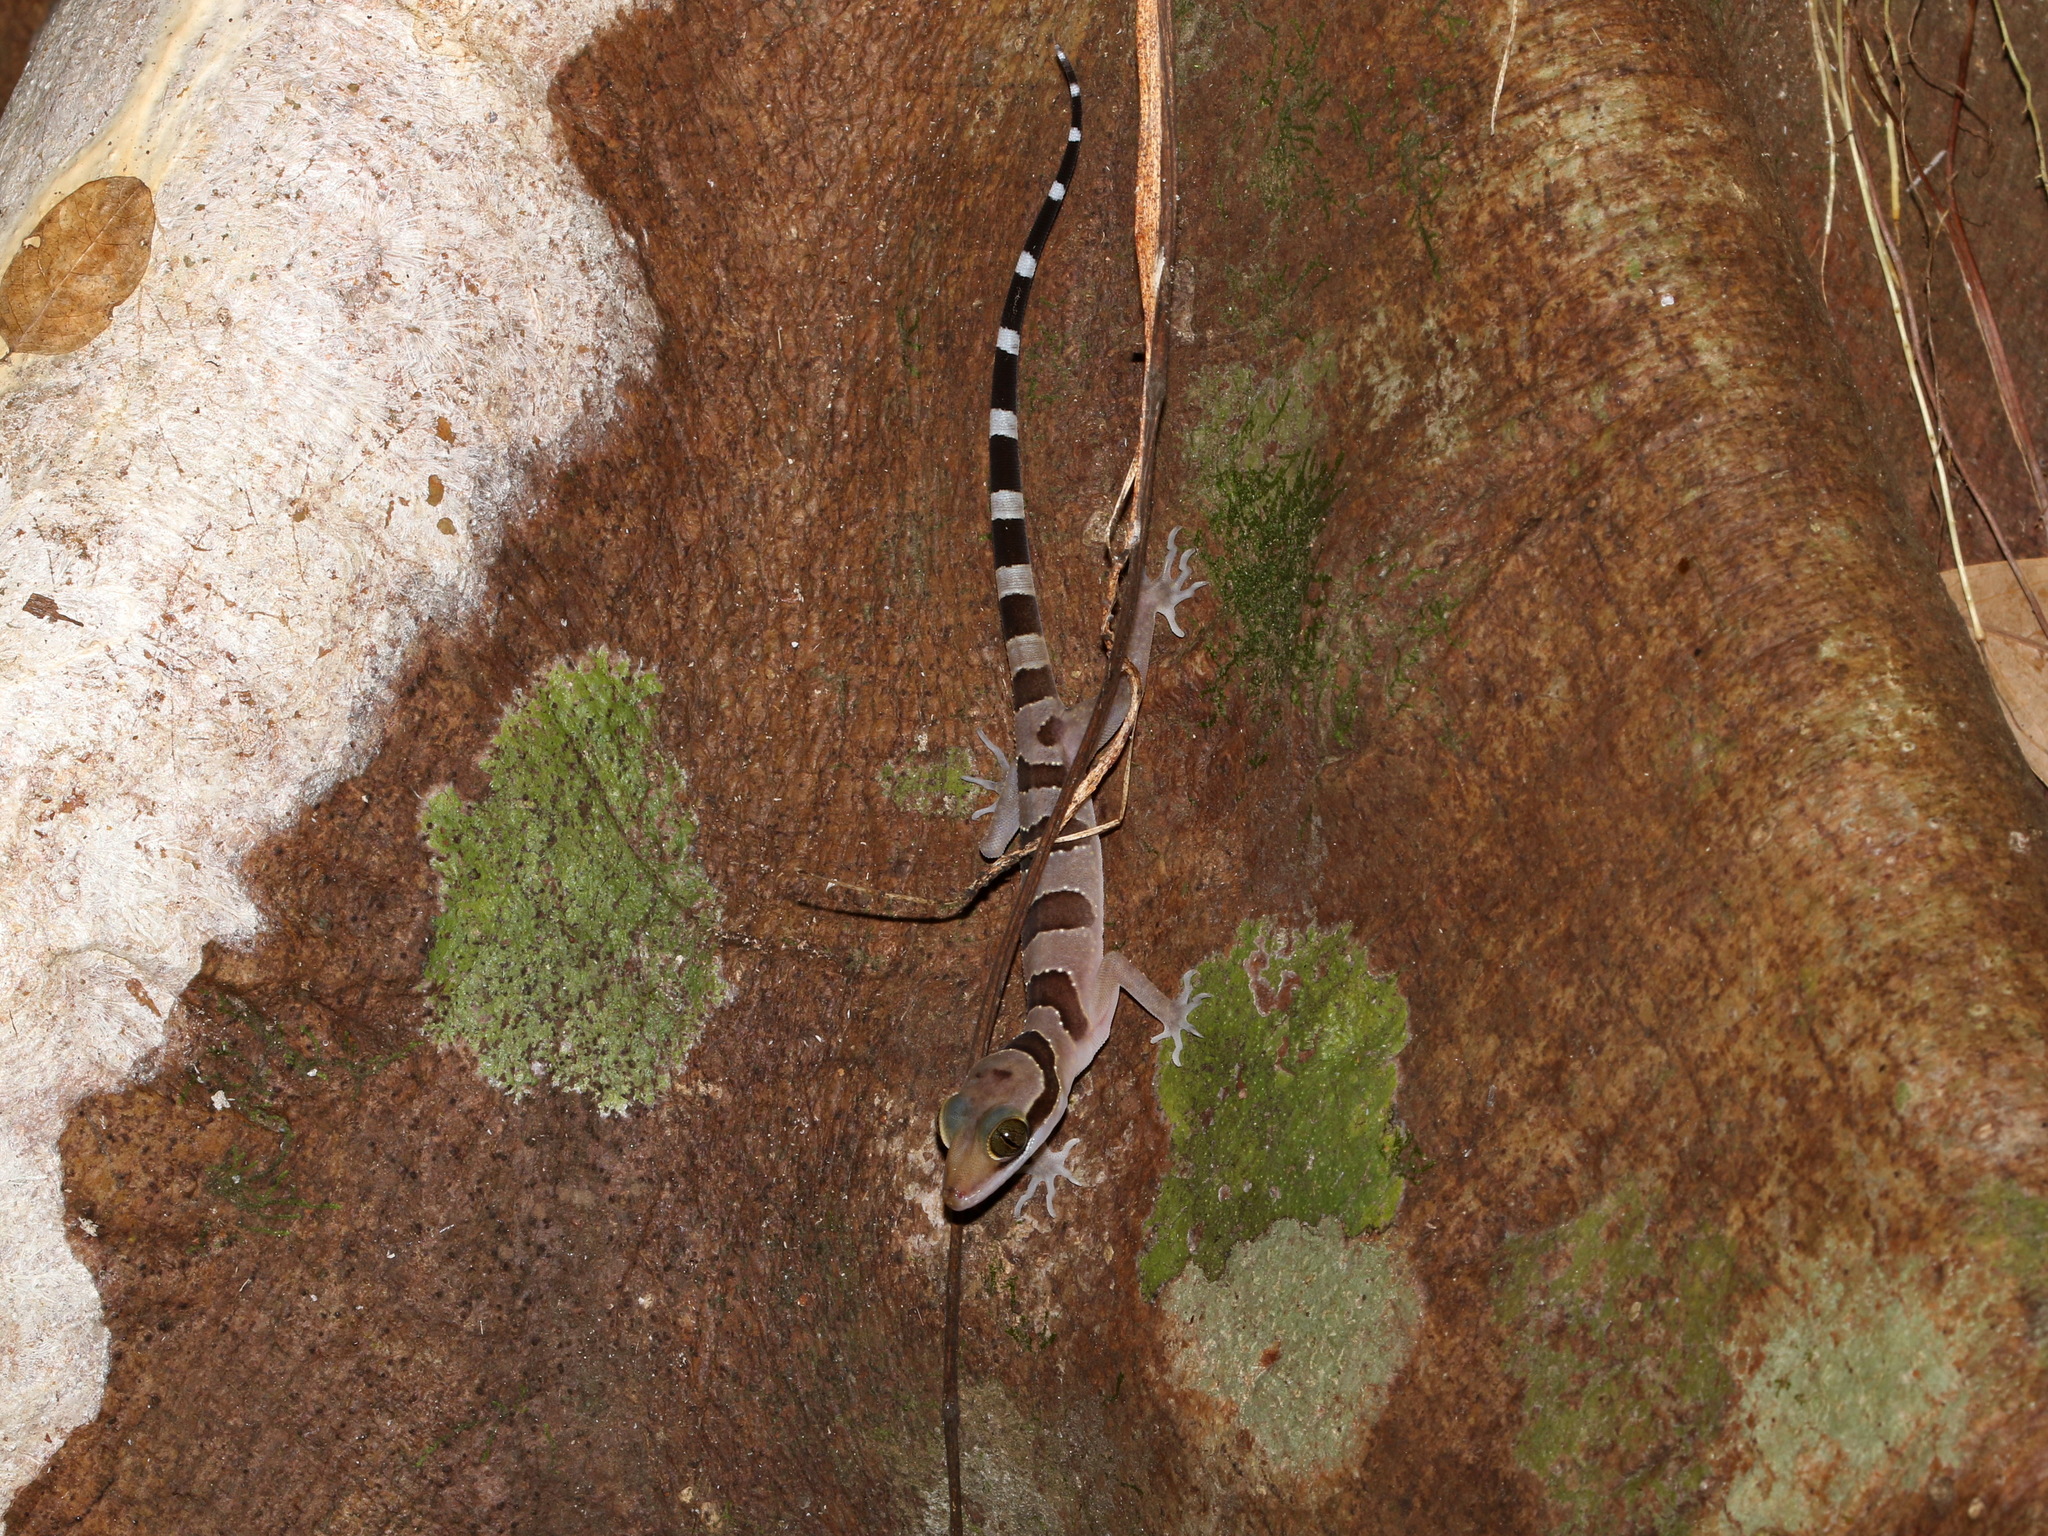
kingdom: Animalia
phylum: Chordata
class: Squamata
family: Gekkonidae
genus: Cyrtodactylus
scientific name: Cyrtodactylus intermedius
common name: Cardamon forest gecko
